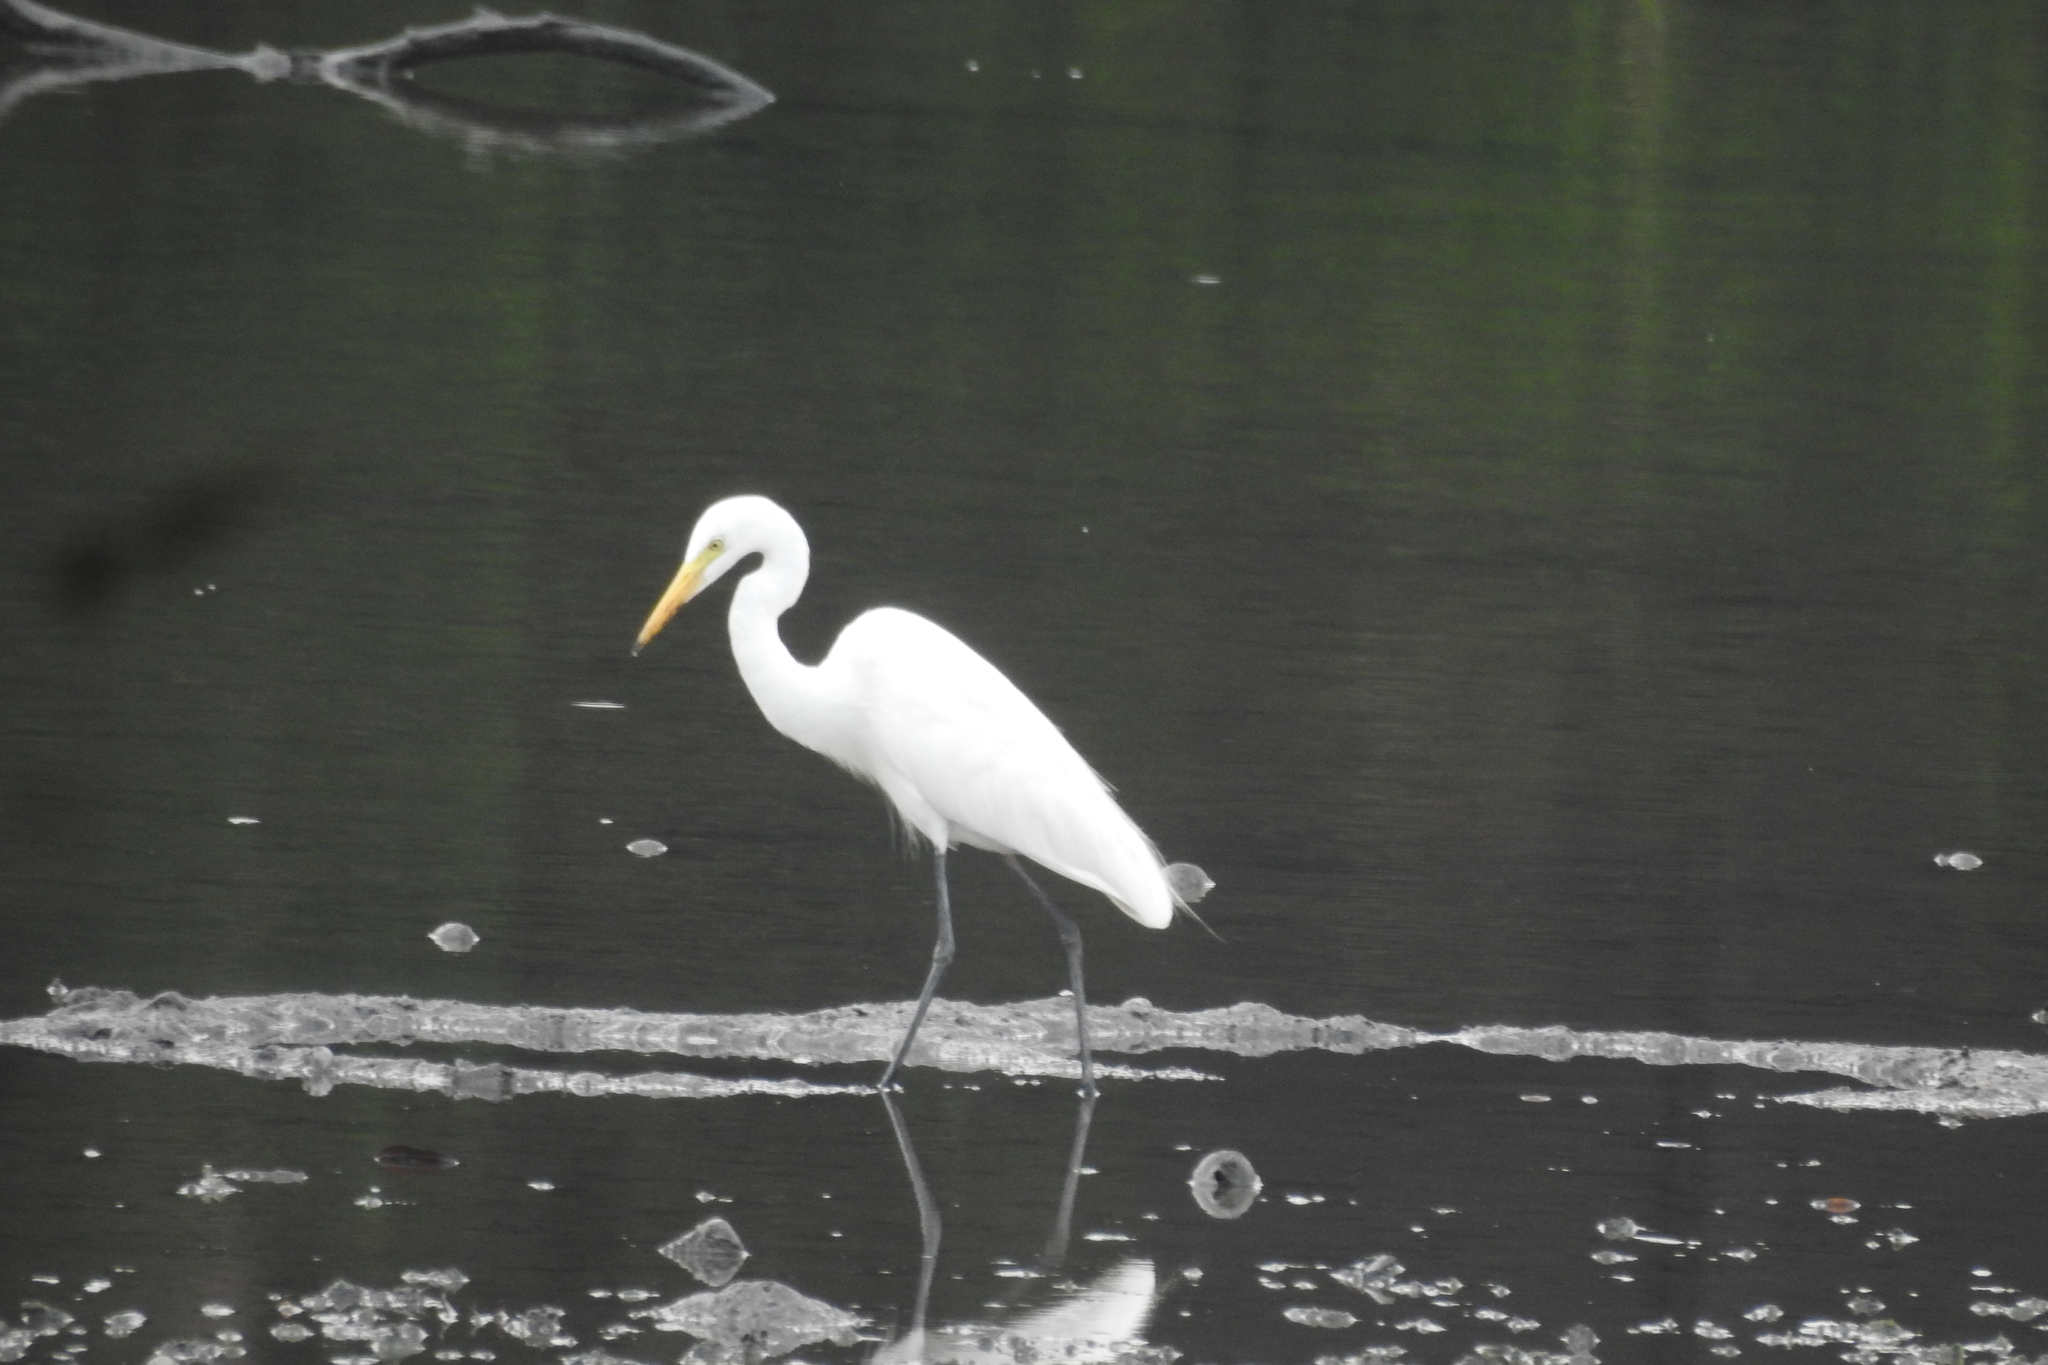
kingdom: Animalia
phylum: Chordata
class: Aves
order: Pelecaniformes
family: Ardeidae
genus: Egretta
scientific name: Egretta intermedia
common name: Intermediate egret
